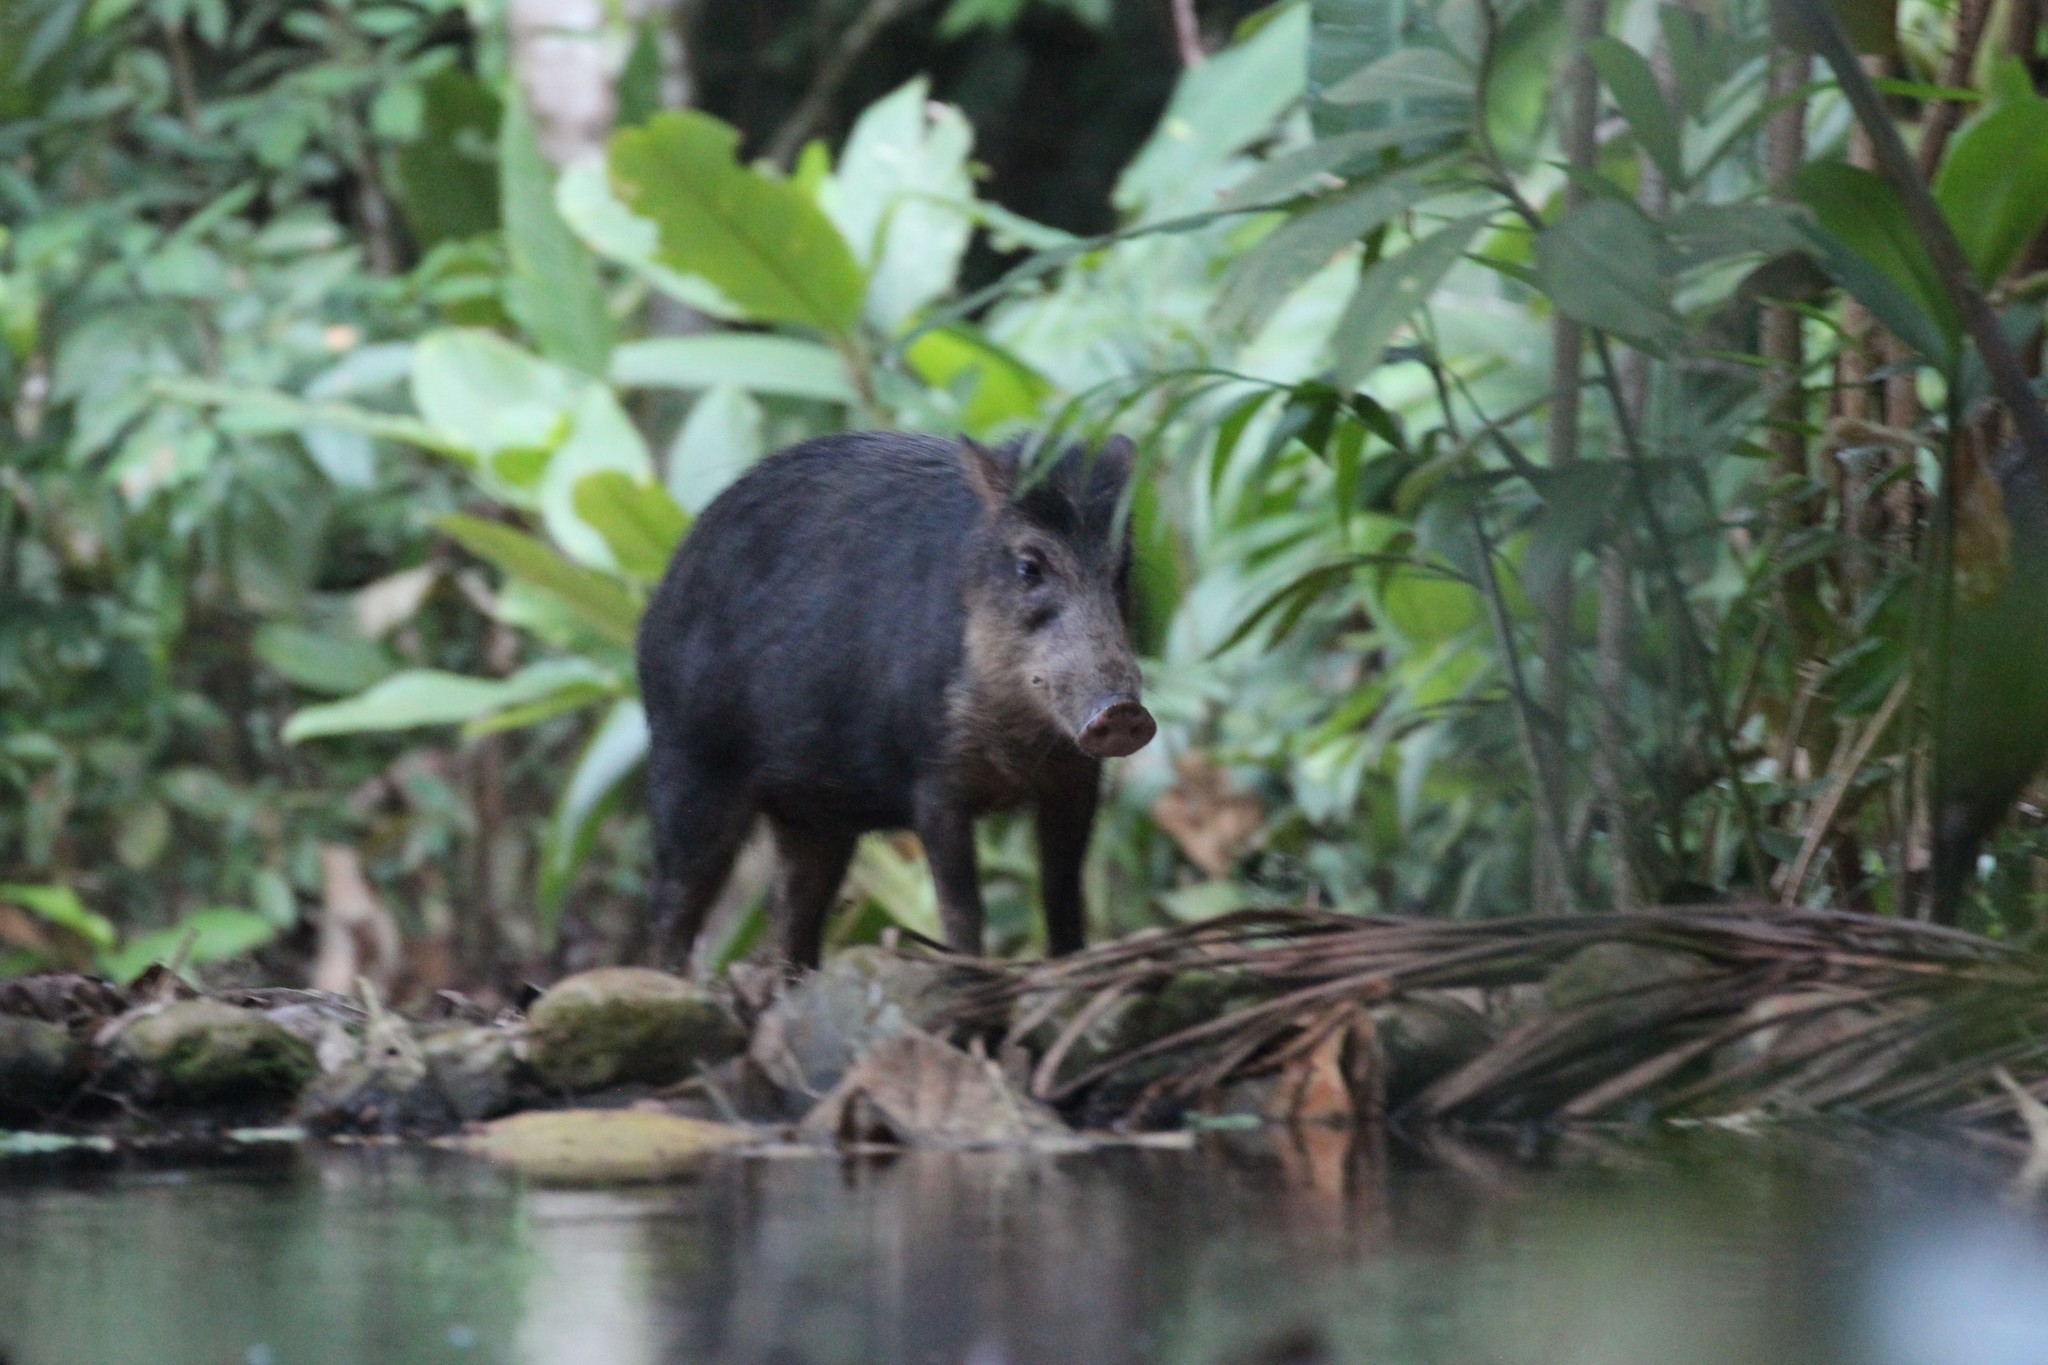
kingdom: Animalia
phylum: Chordata
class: Mammalia
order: Artiodactyla
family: Tayassuidae
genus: Tayassu
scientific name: Tayassu pecari
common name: White-lipped peccary
